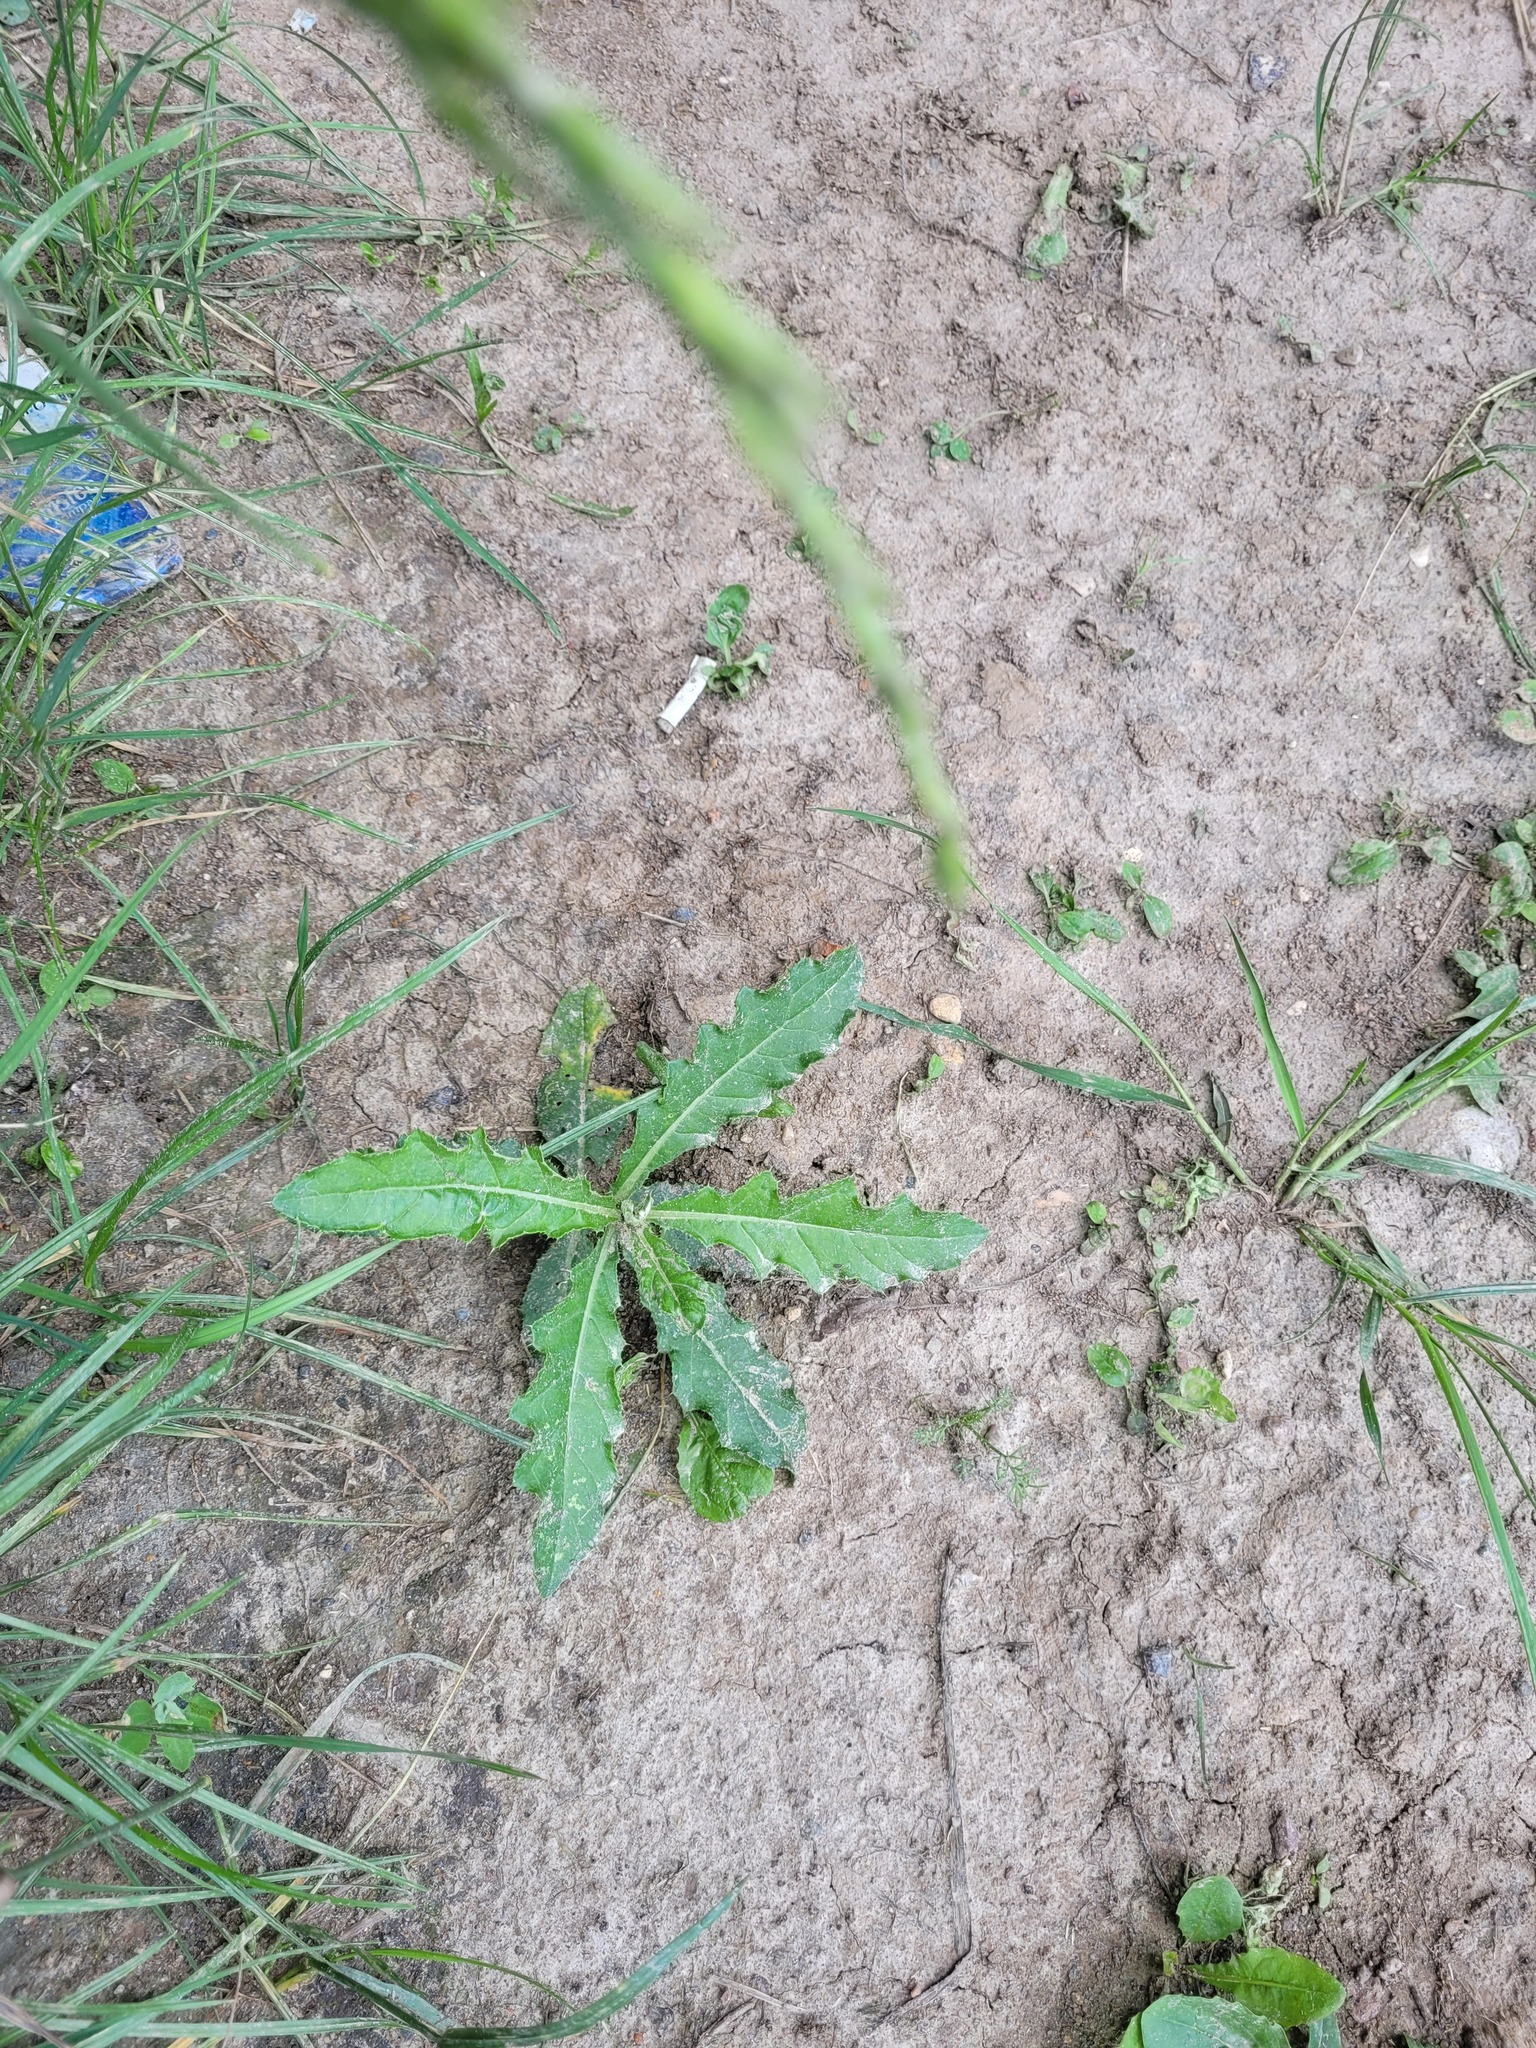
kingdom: Plantae
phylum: Tracheophyta
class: Magnoliopsida
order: Asterales
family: Asteraceae
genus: Cirsium
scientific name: Cirsium arvense
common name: Creeping thistle
